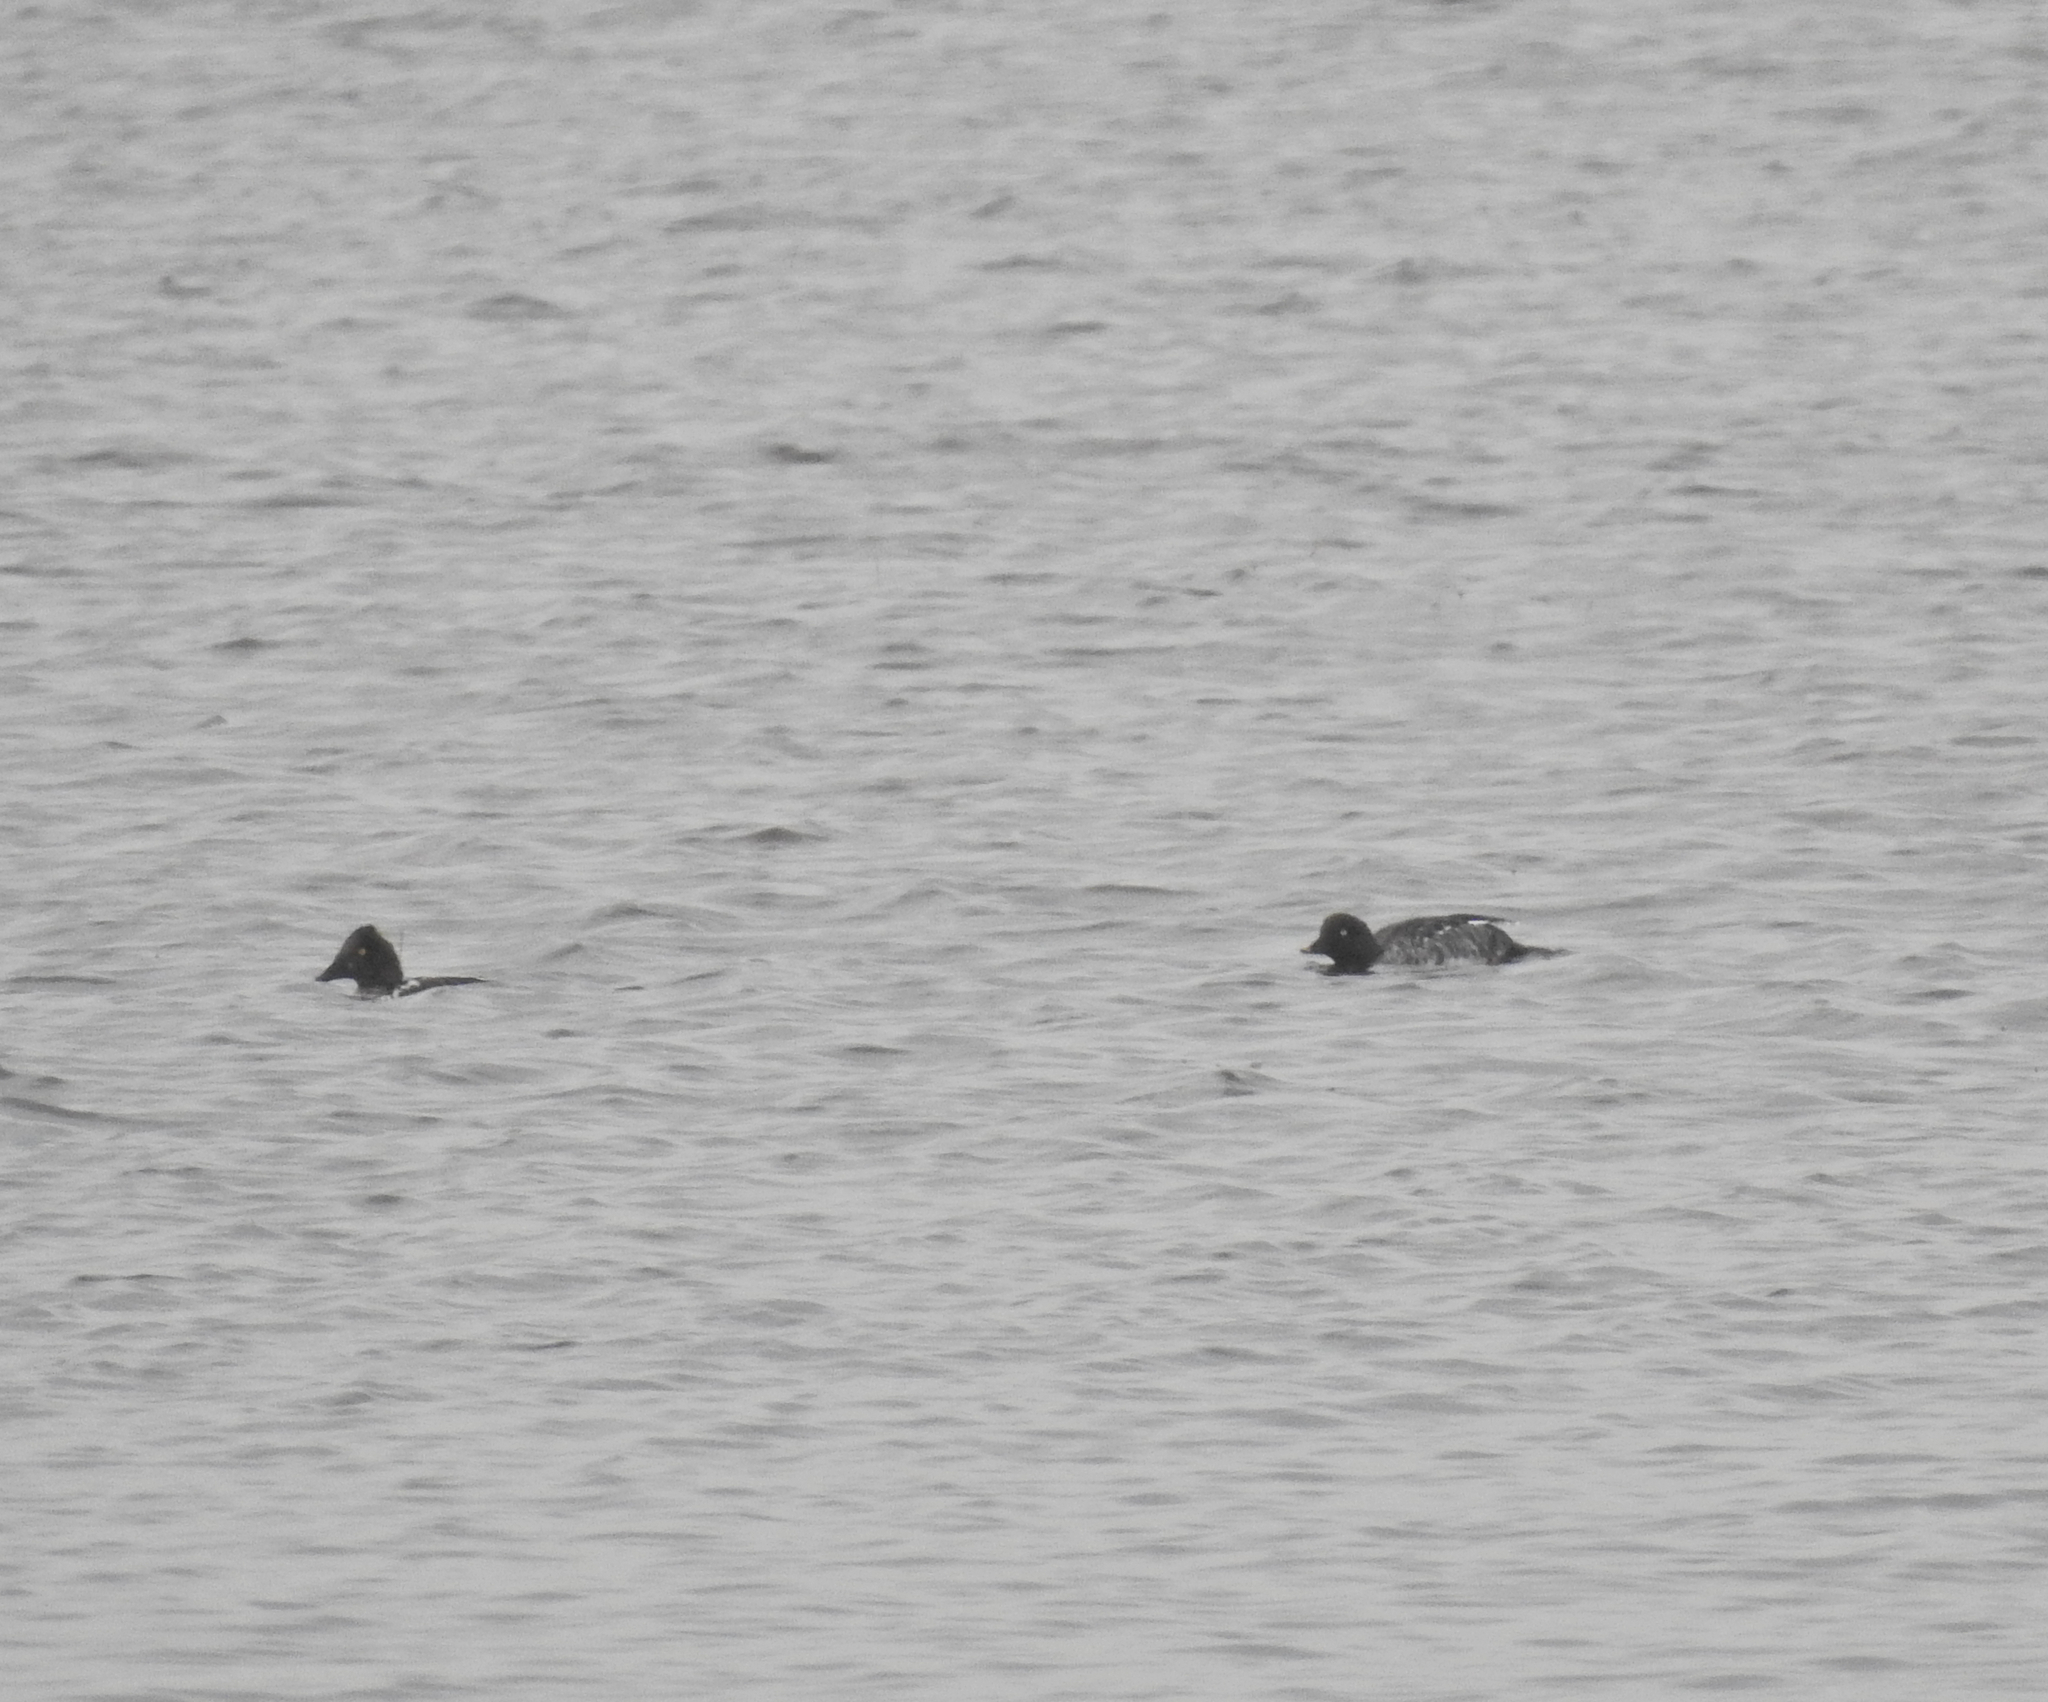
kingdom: Animalia
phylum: Chordata
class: Aves
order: Anseriformes
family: Anatidae
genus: Bucephala
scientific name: Bucephala clangula
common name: Common goldeneye
